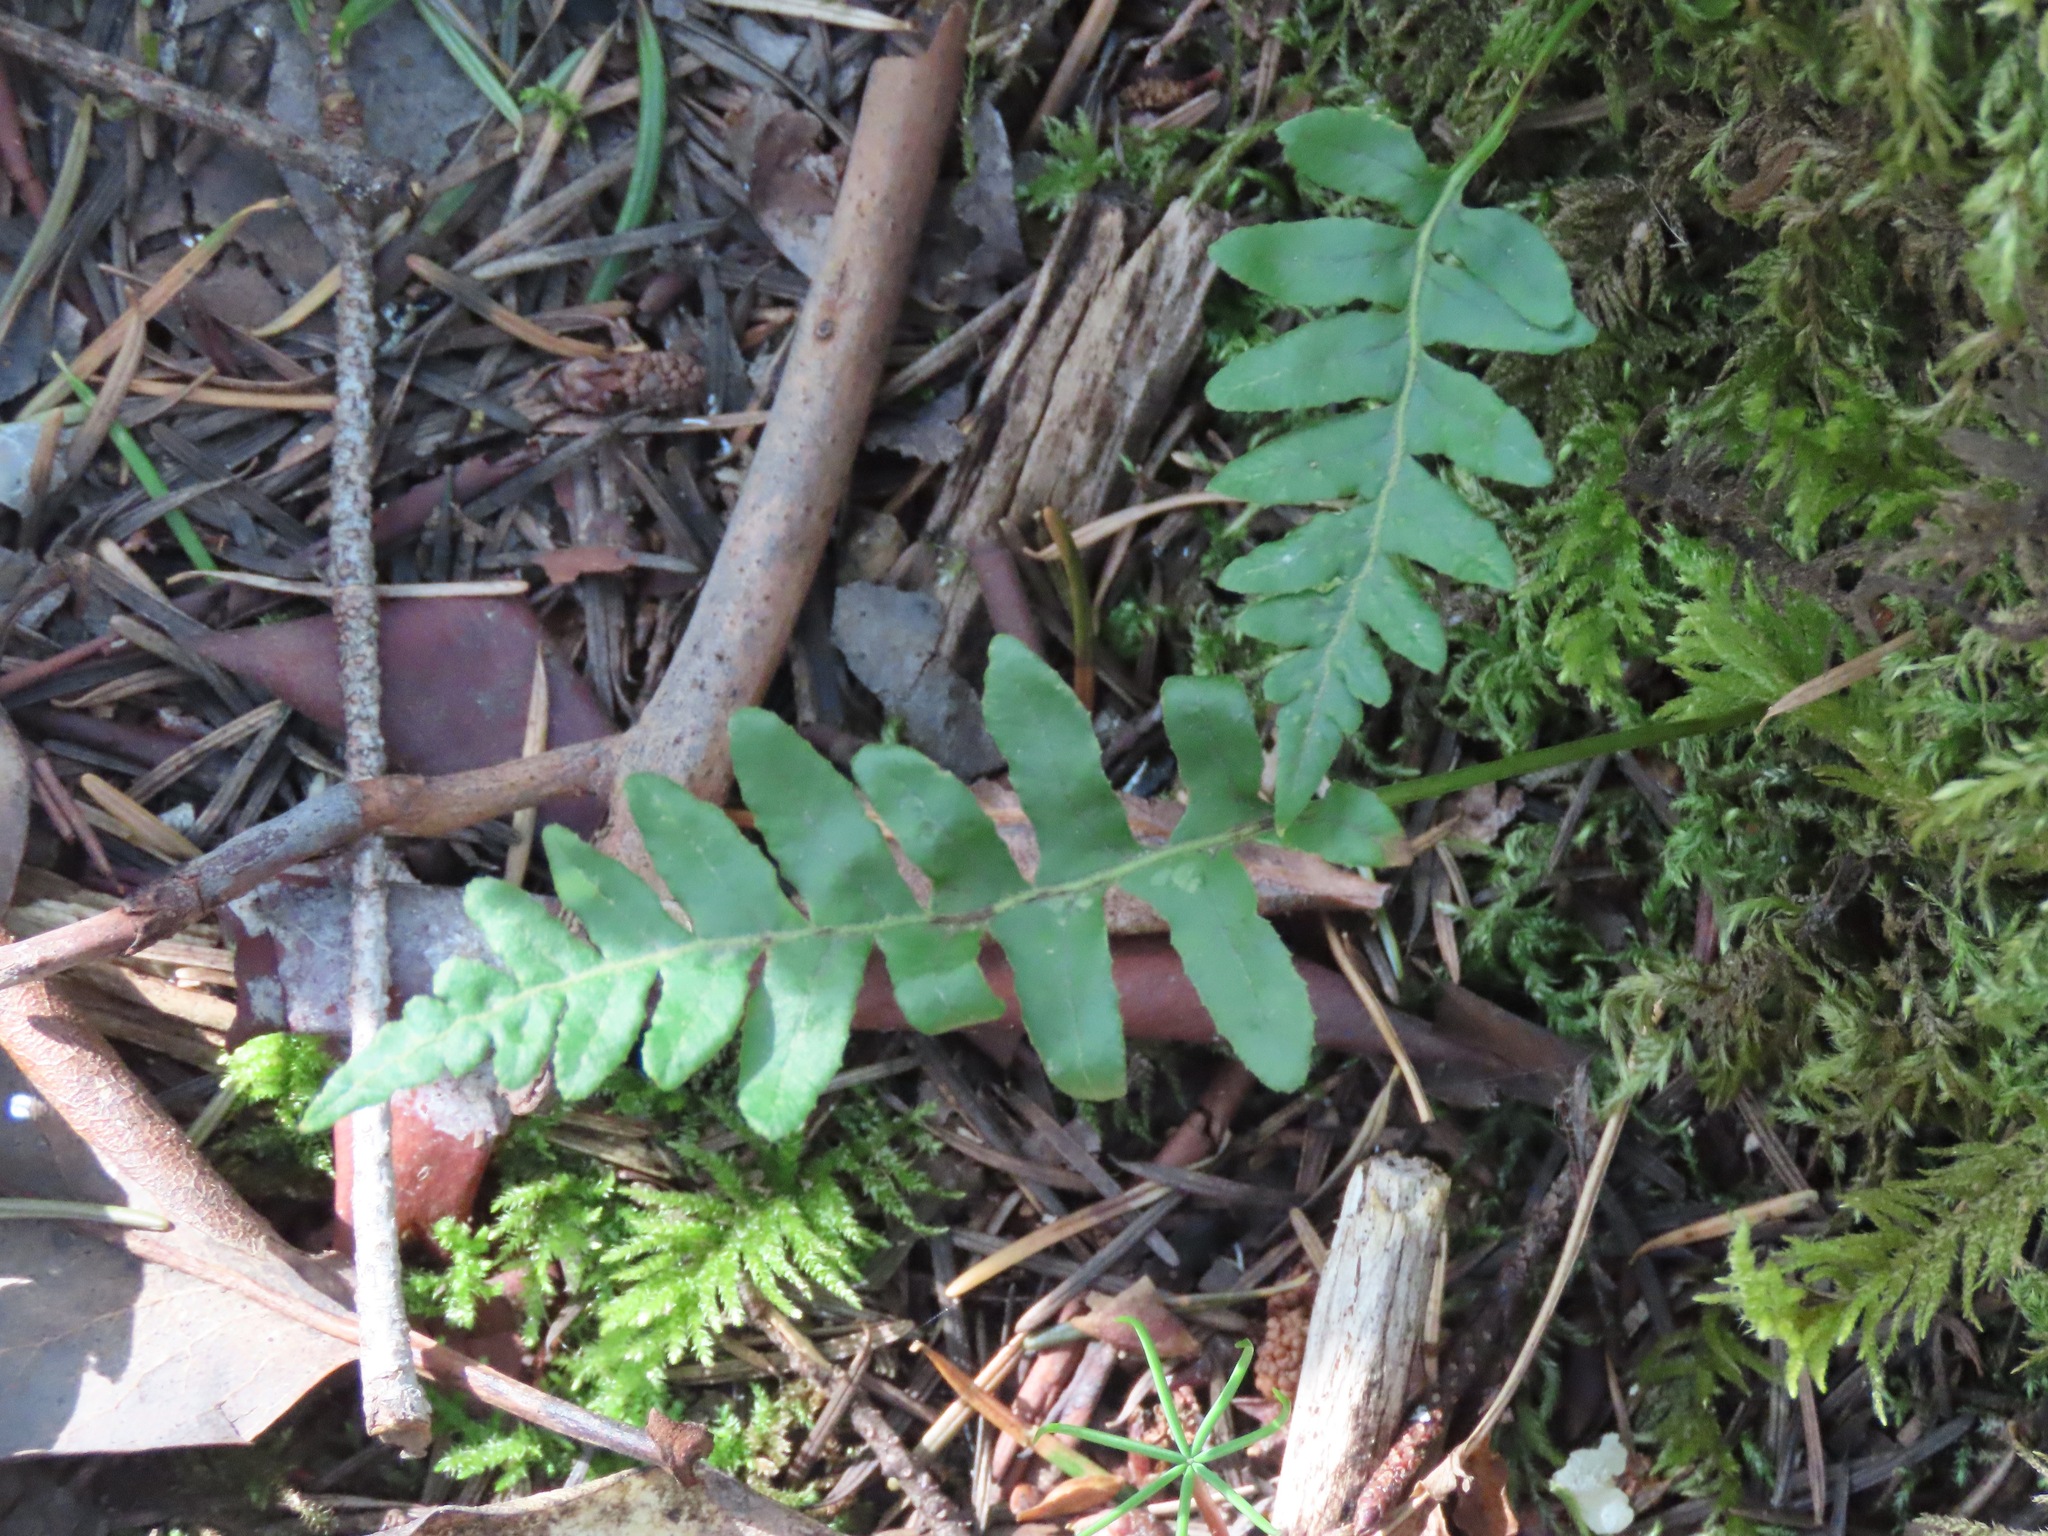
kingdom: Plantae
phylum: Tracheophyta
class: Polypodiopsida
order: Polypodiales
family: Polypodiaceae
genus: Polypodium
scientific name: Polypodium glycyrrhiza
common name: Licorice fern
